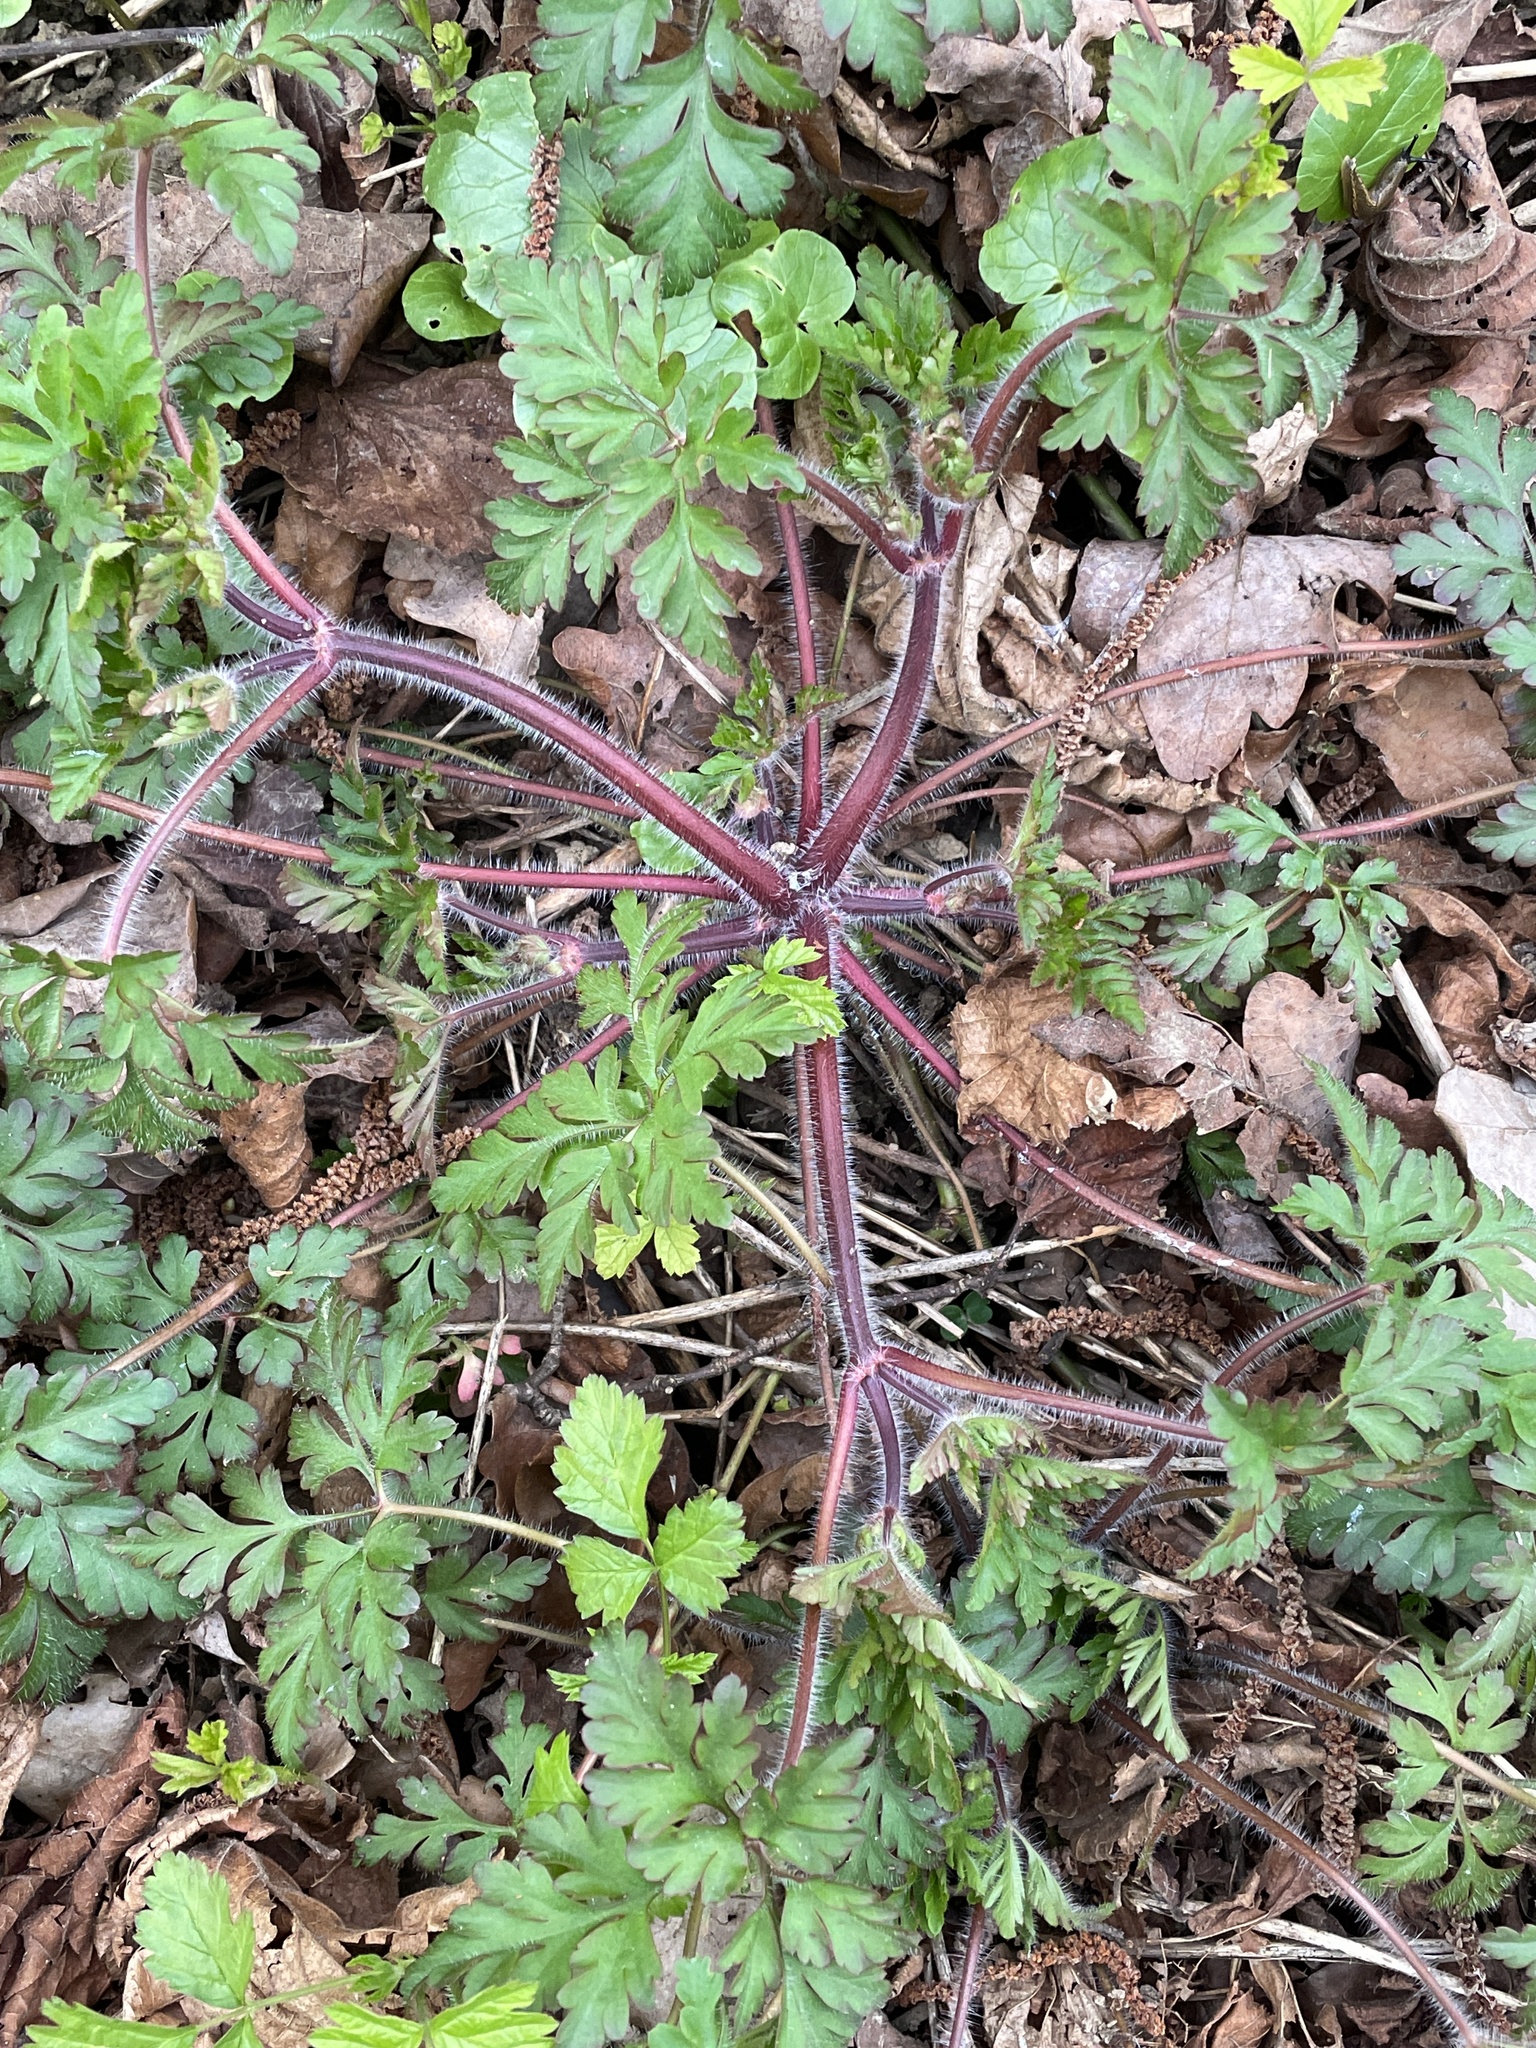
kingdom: Plantae
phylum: Tracheophyta
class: Magnoliopsida
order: Geraniales
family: Geraniaceae
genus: Geranium
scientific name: Geranium robertianum
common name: Herb-robert
